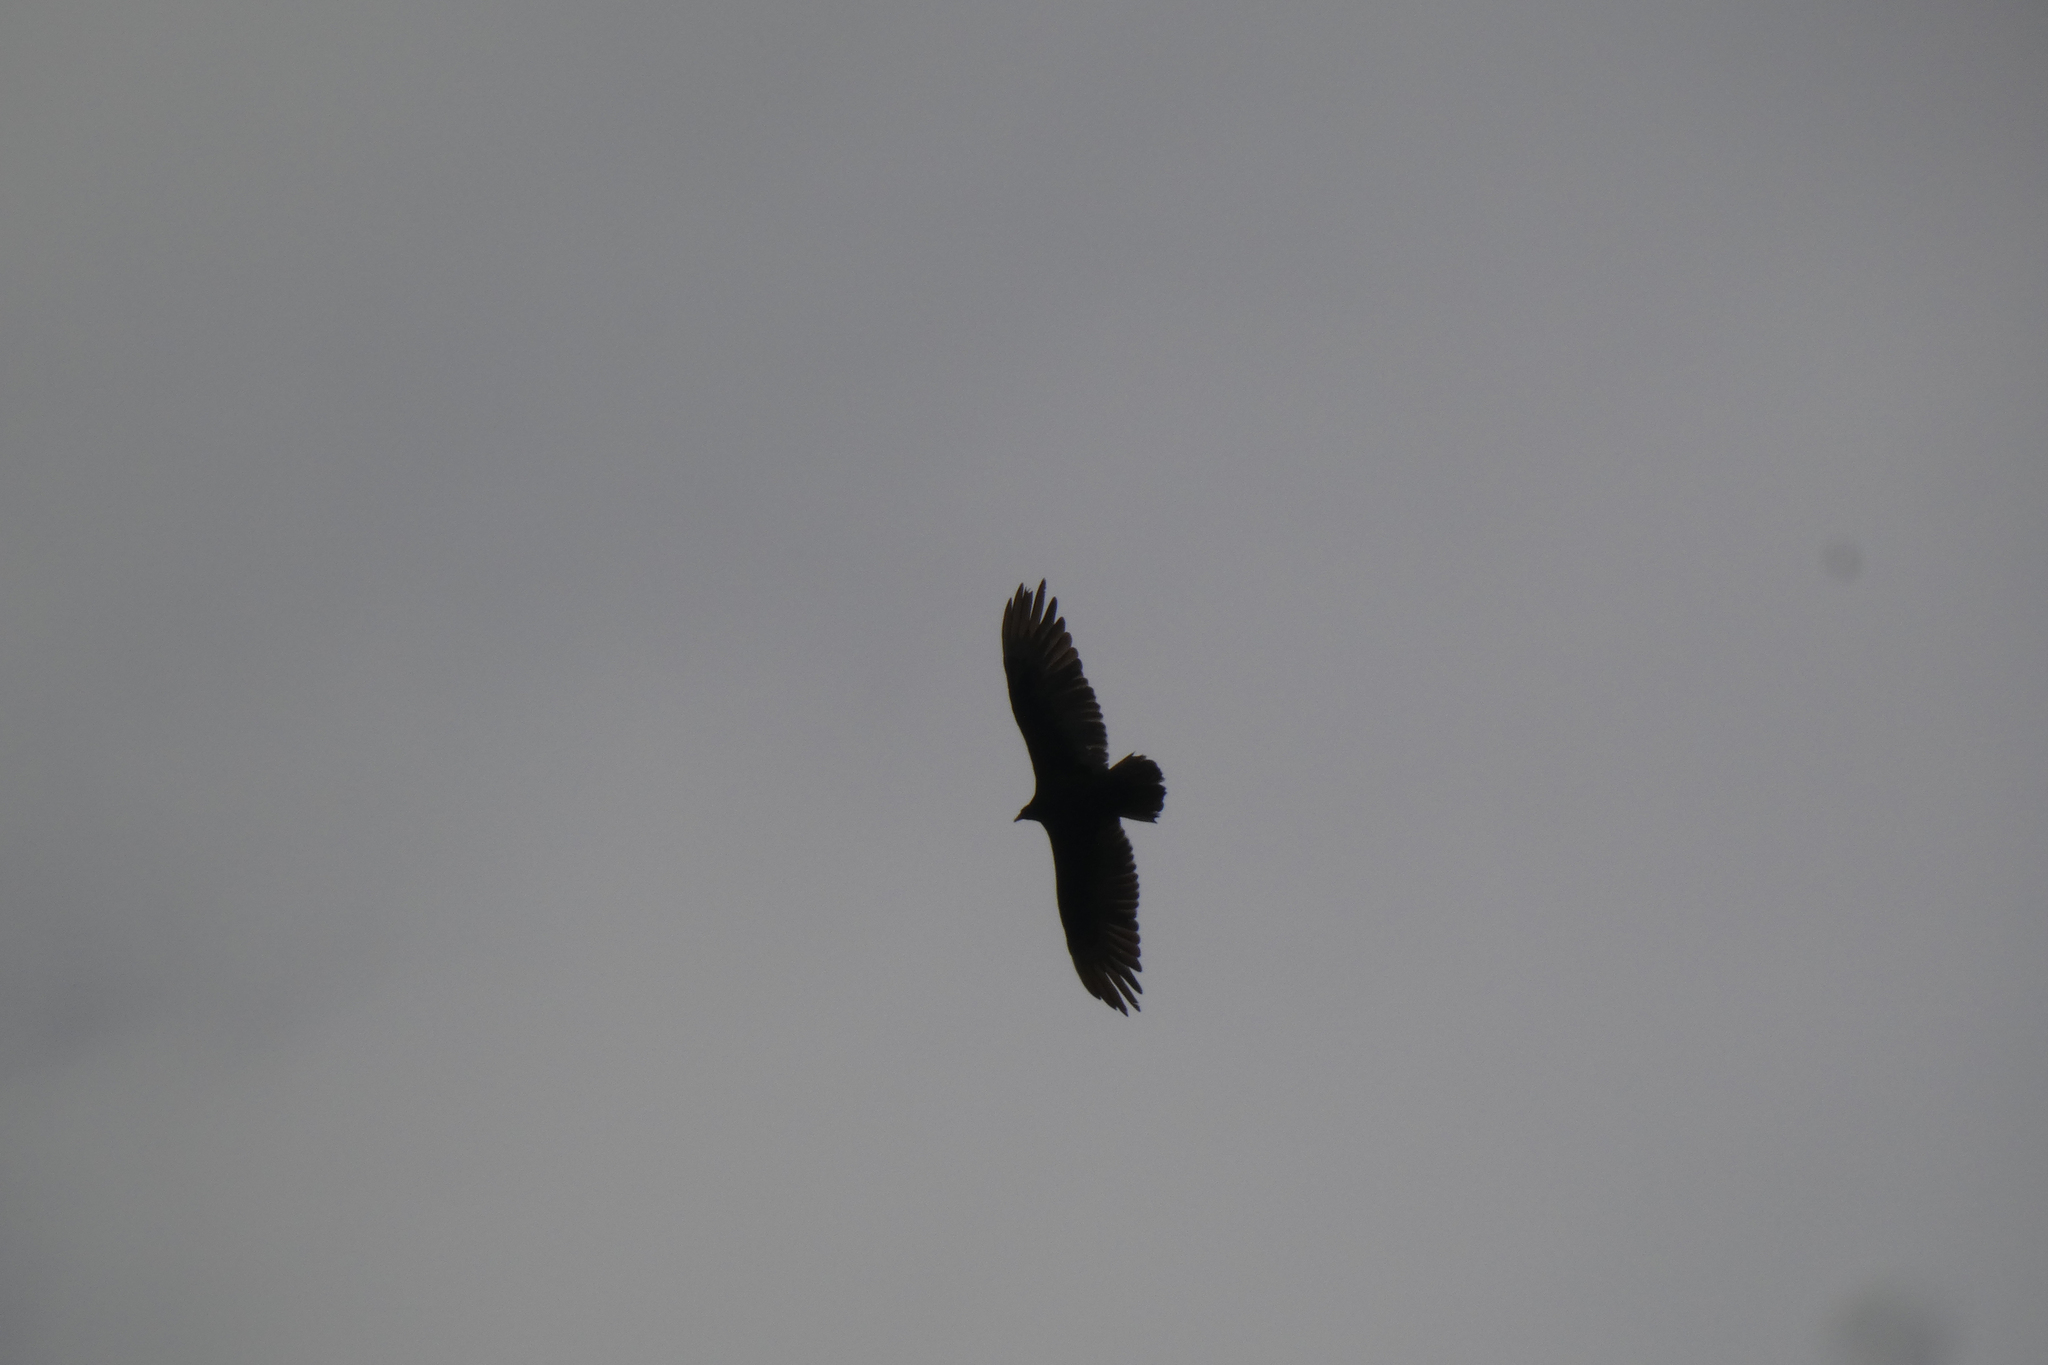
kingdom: Animalia
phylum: Chordata
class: Aves
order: Accipitriformes
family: Cathartidae
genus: Cathartes
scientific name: Cathartes aura
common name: Turkey vulture
